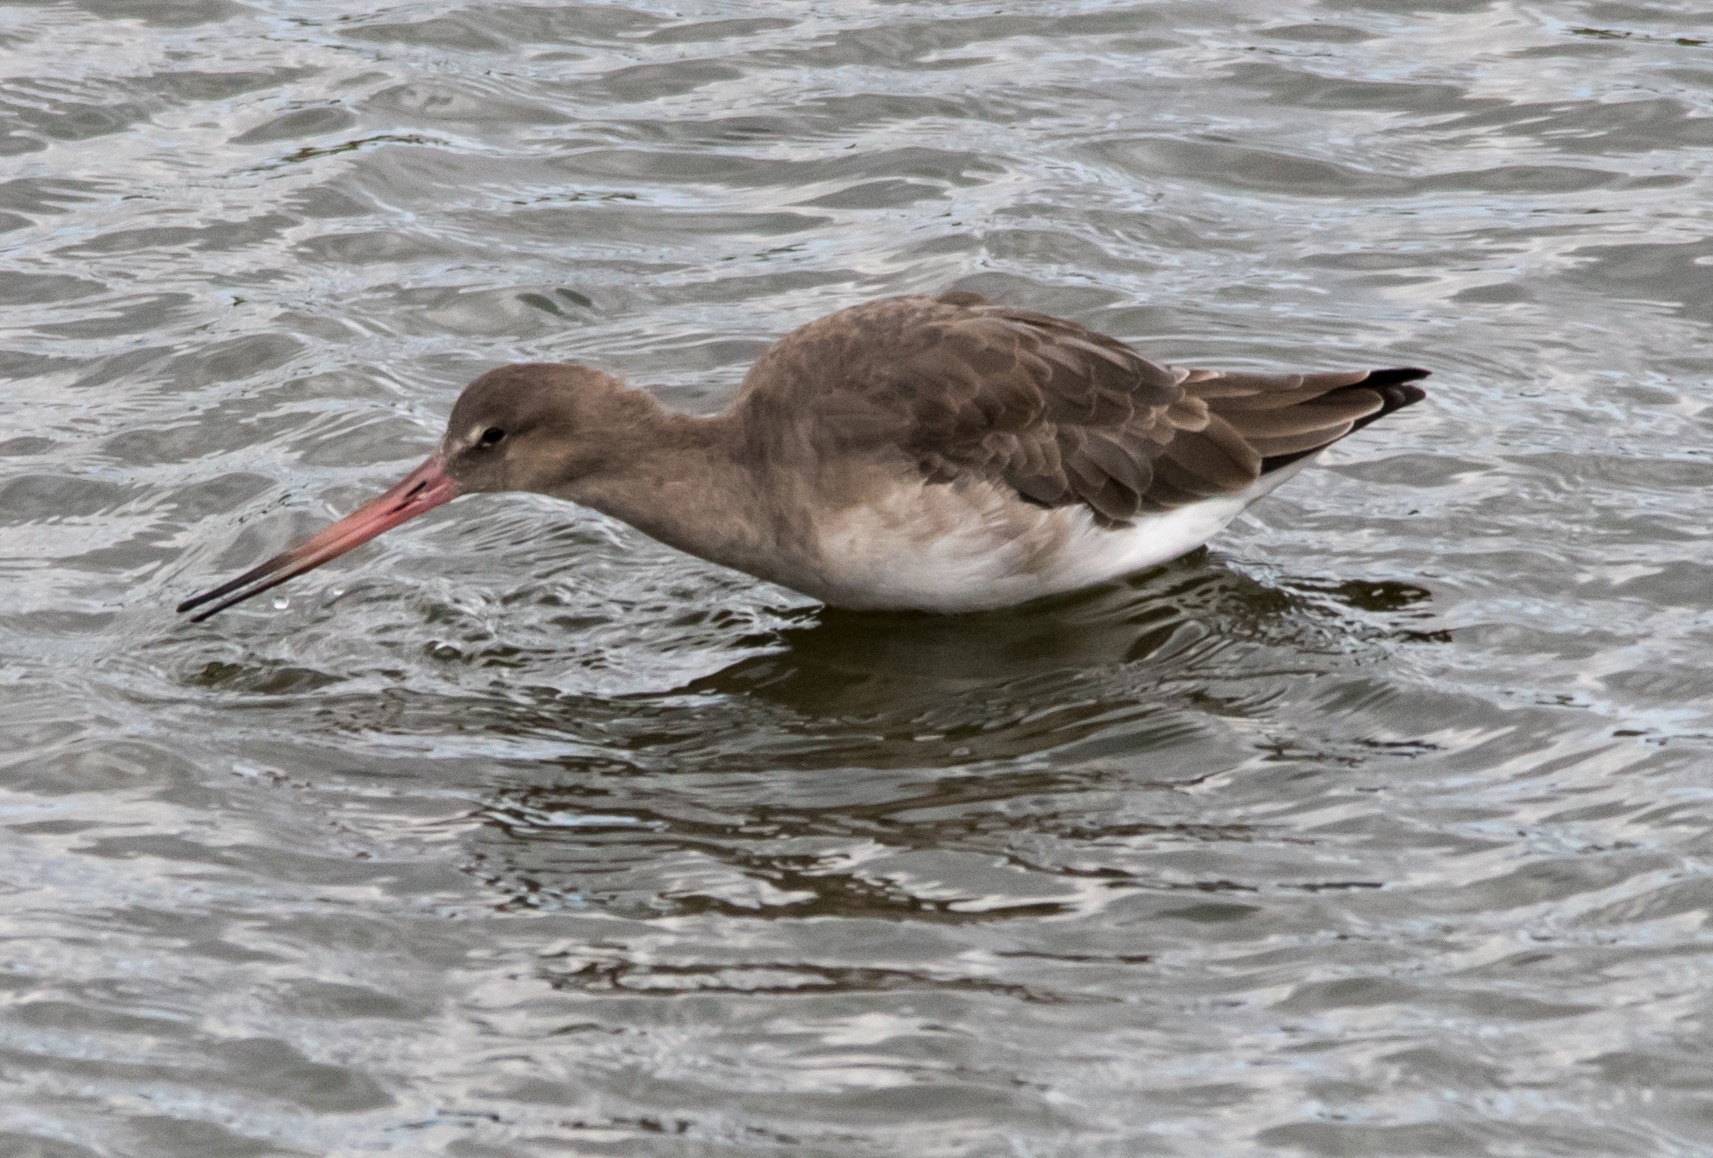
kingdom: Animalia
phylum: Chordata
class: Aves
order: Charadriiformes
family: Scolopacidae
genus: Limosa
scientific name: Limosa limosa
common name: Black-tailed godwit
